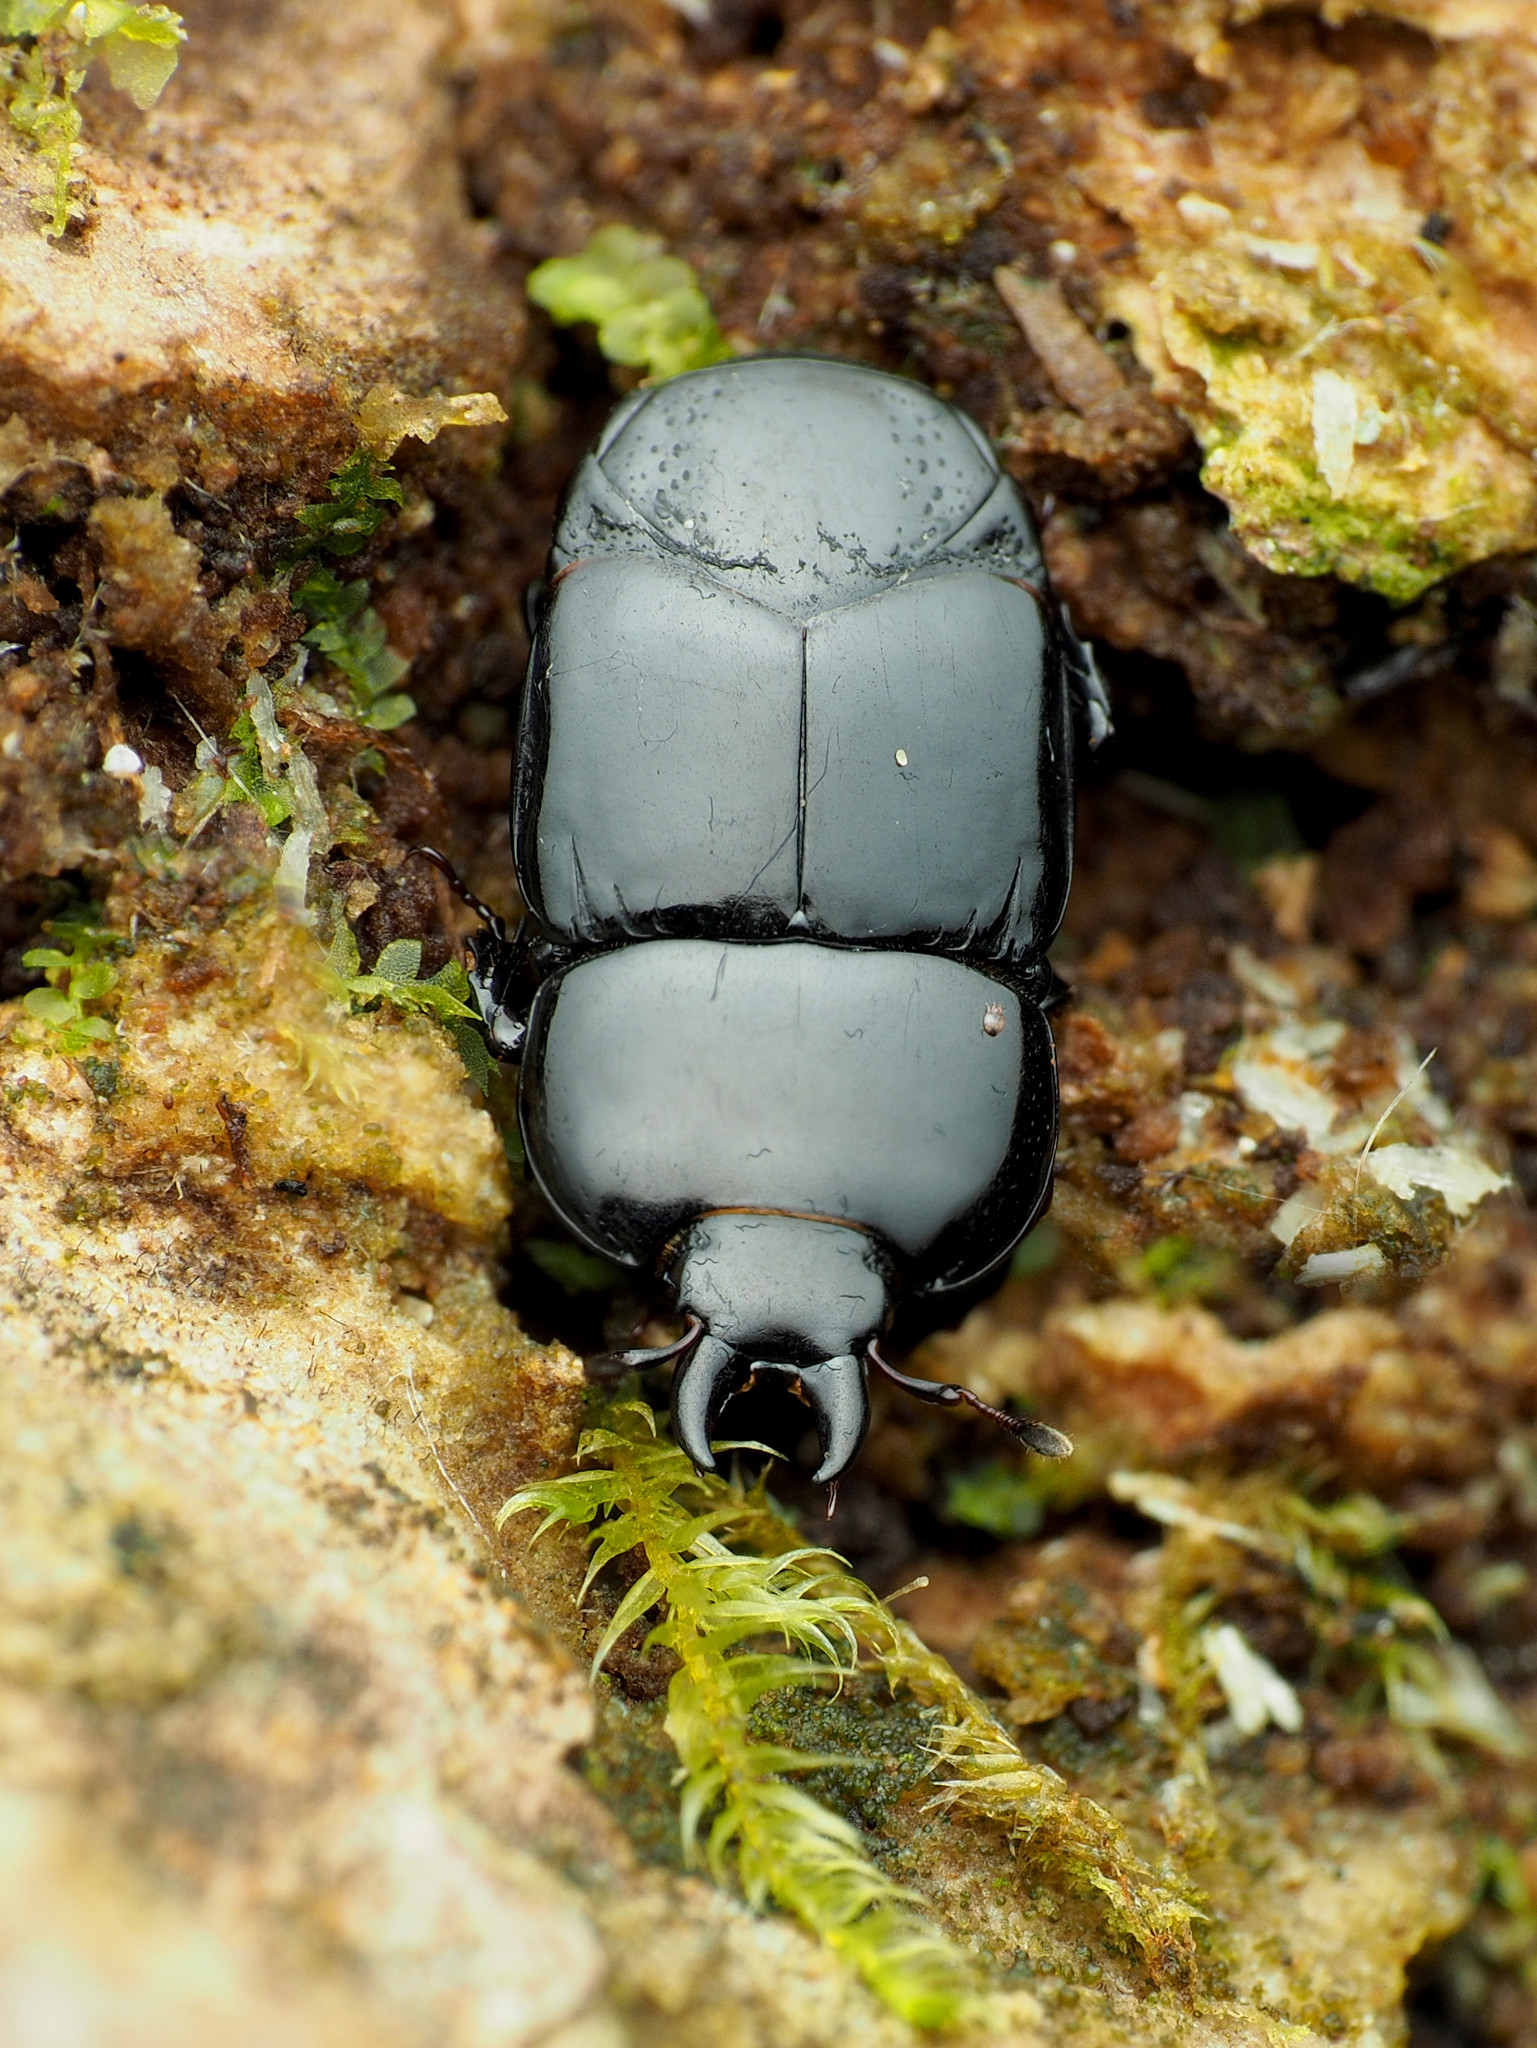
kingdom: Animalia
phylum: Arthropoda
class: Insecta
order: Coleoptera
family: Histeridae
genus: Hololepta
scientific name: Hololepta aequalis
